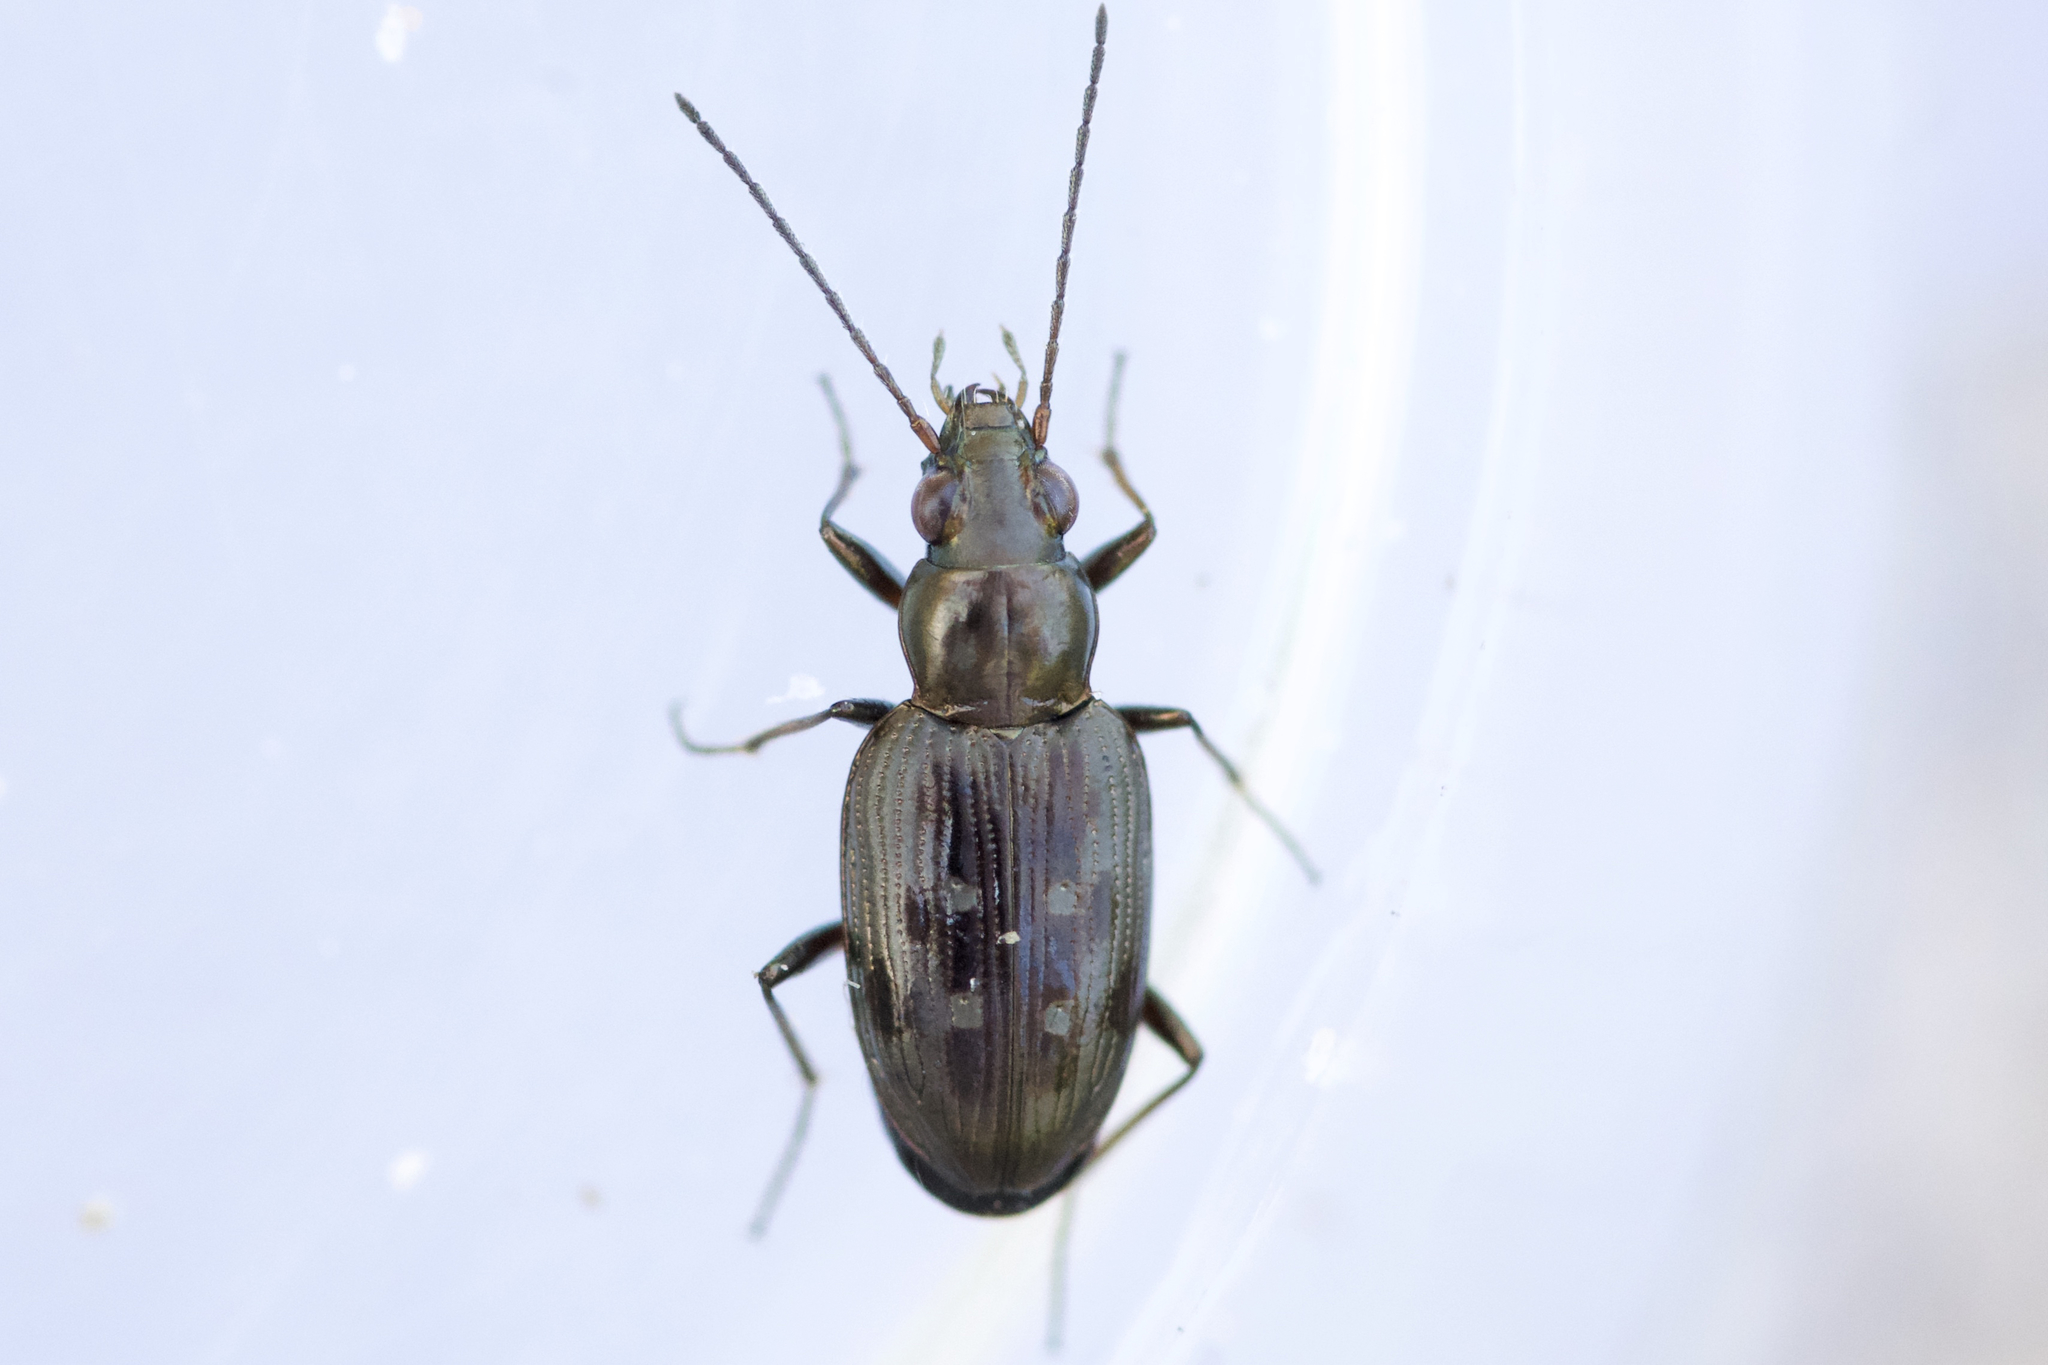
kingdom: Animalia
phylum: Arthropoda
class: Insecta
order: Coleoptera
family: Carabidae
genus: Bembidion
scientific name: Bembidion inaequale
